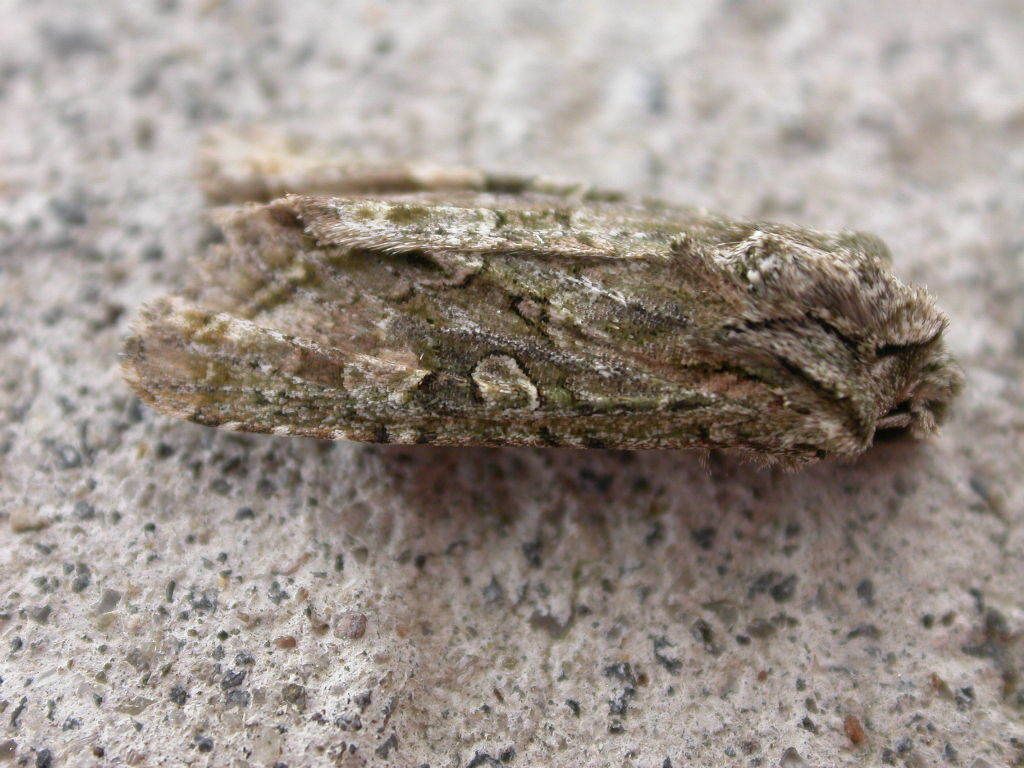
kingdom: Animalia
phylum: Arthropoda
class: Insecta
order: Lepidoptera
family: Noctuidae
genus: Ichneutica
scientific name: Ichneutica mutans
